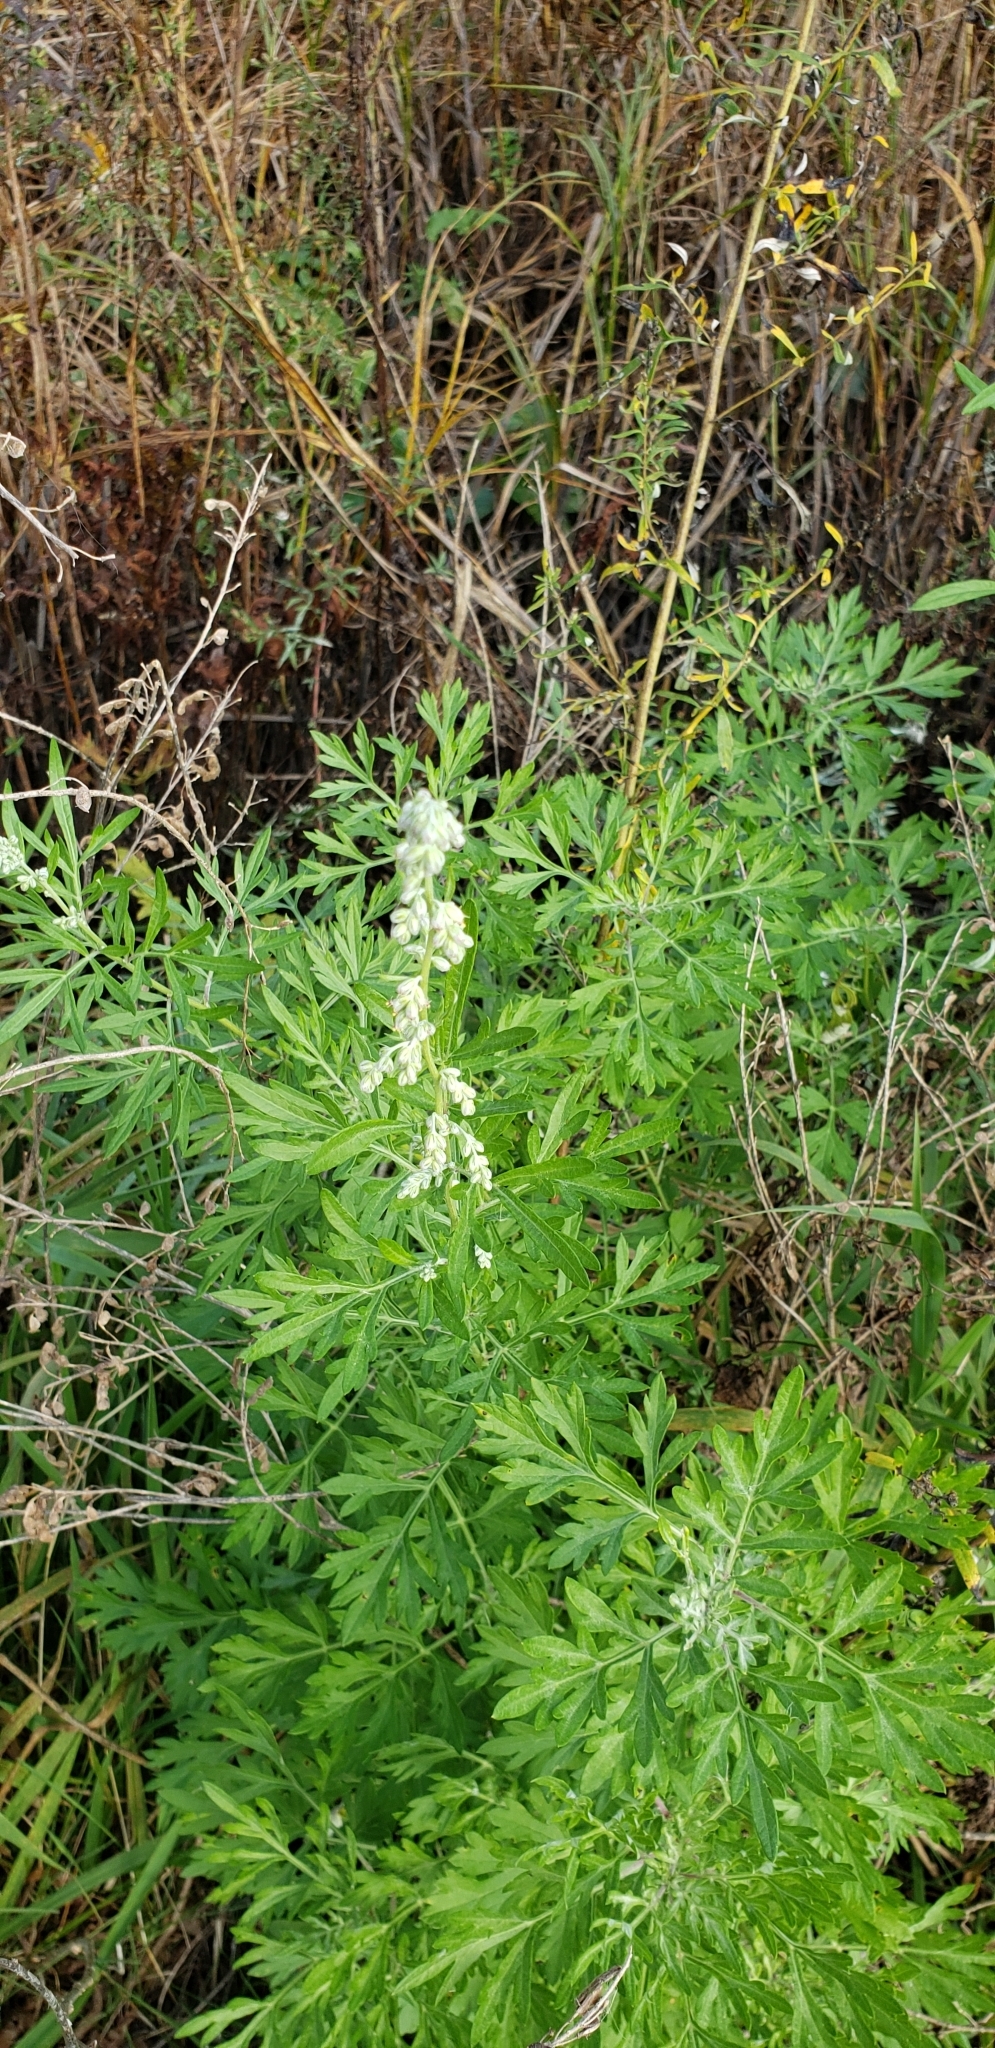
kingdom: Plantae
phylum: Tracheophyta
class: Magnoliopsida
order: Asterales
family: Asteraceae
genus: Artemisia
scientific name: Artemisia vulgaris
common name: Mugwort
